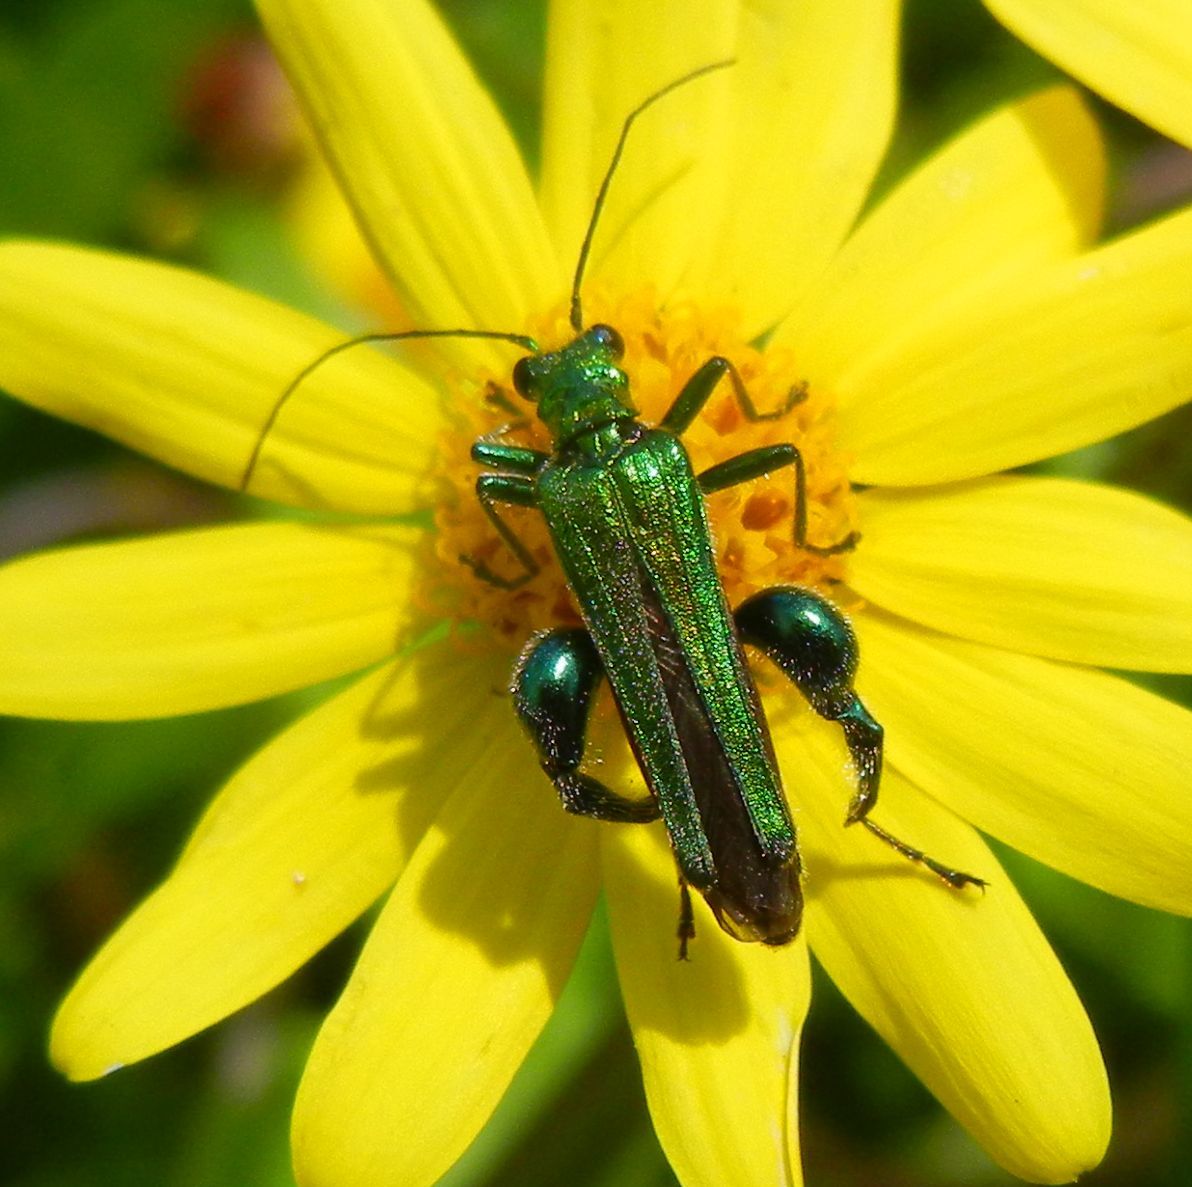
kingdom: Animalia
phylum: Arthropoda
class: Insecta
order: Coleoptera
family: Oedemeridae
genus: Oedemera
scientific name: Oedemera nobilis
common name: Swollen-thighed beetle
